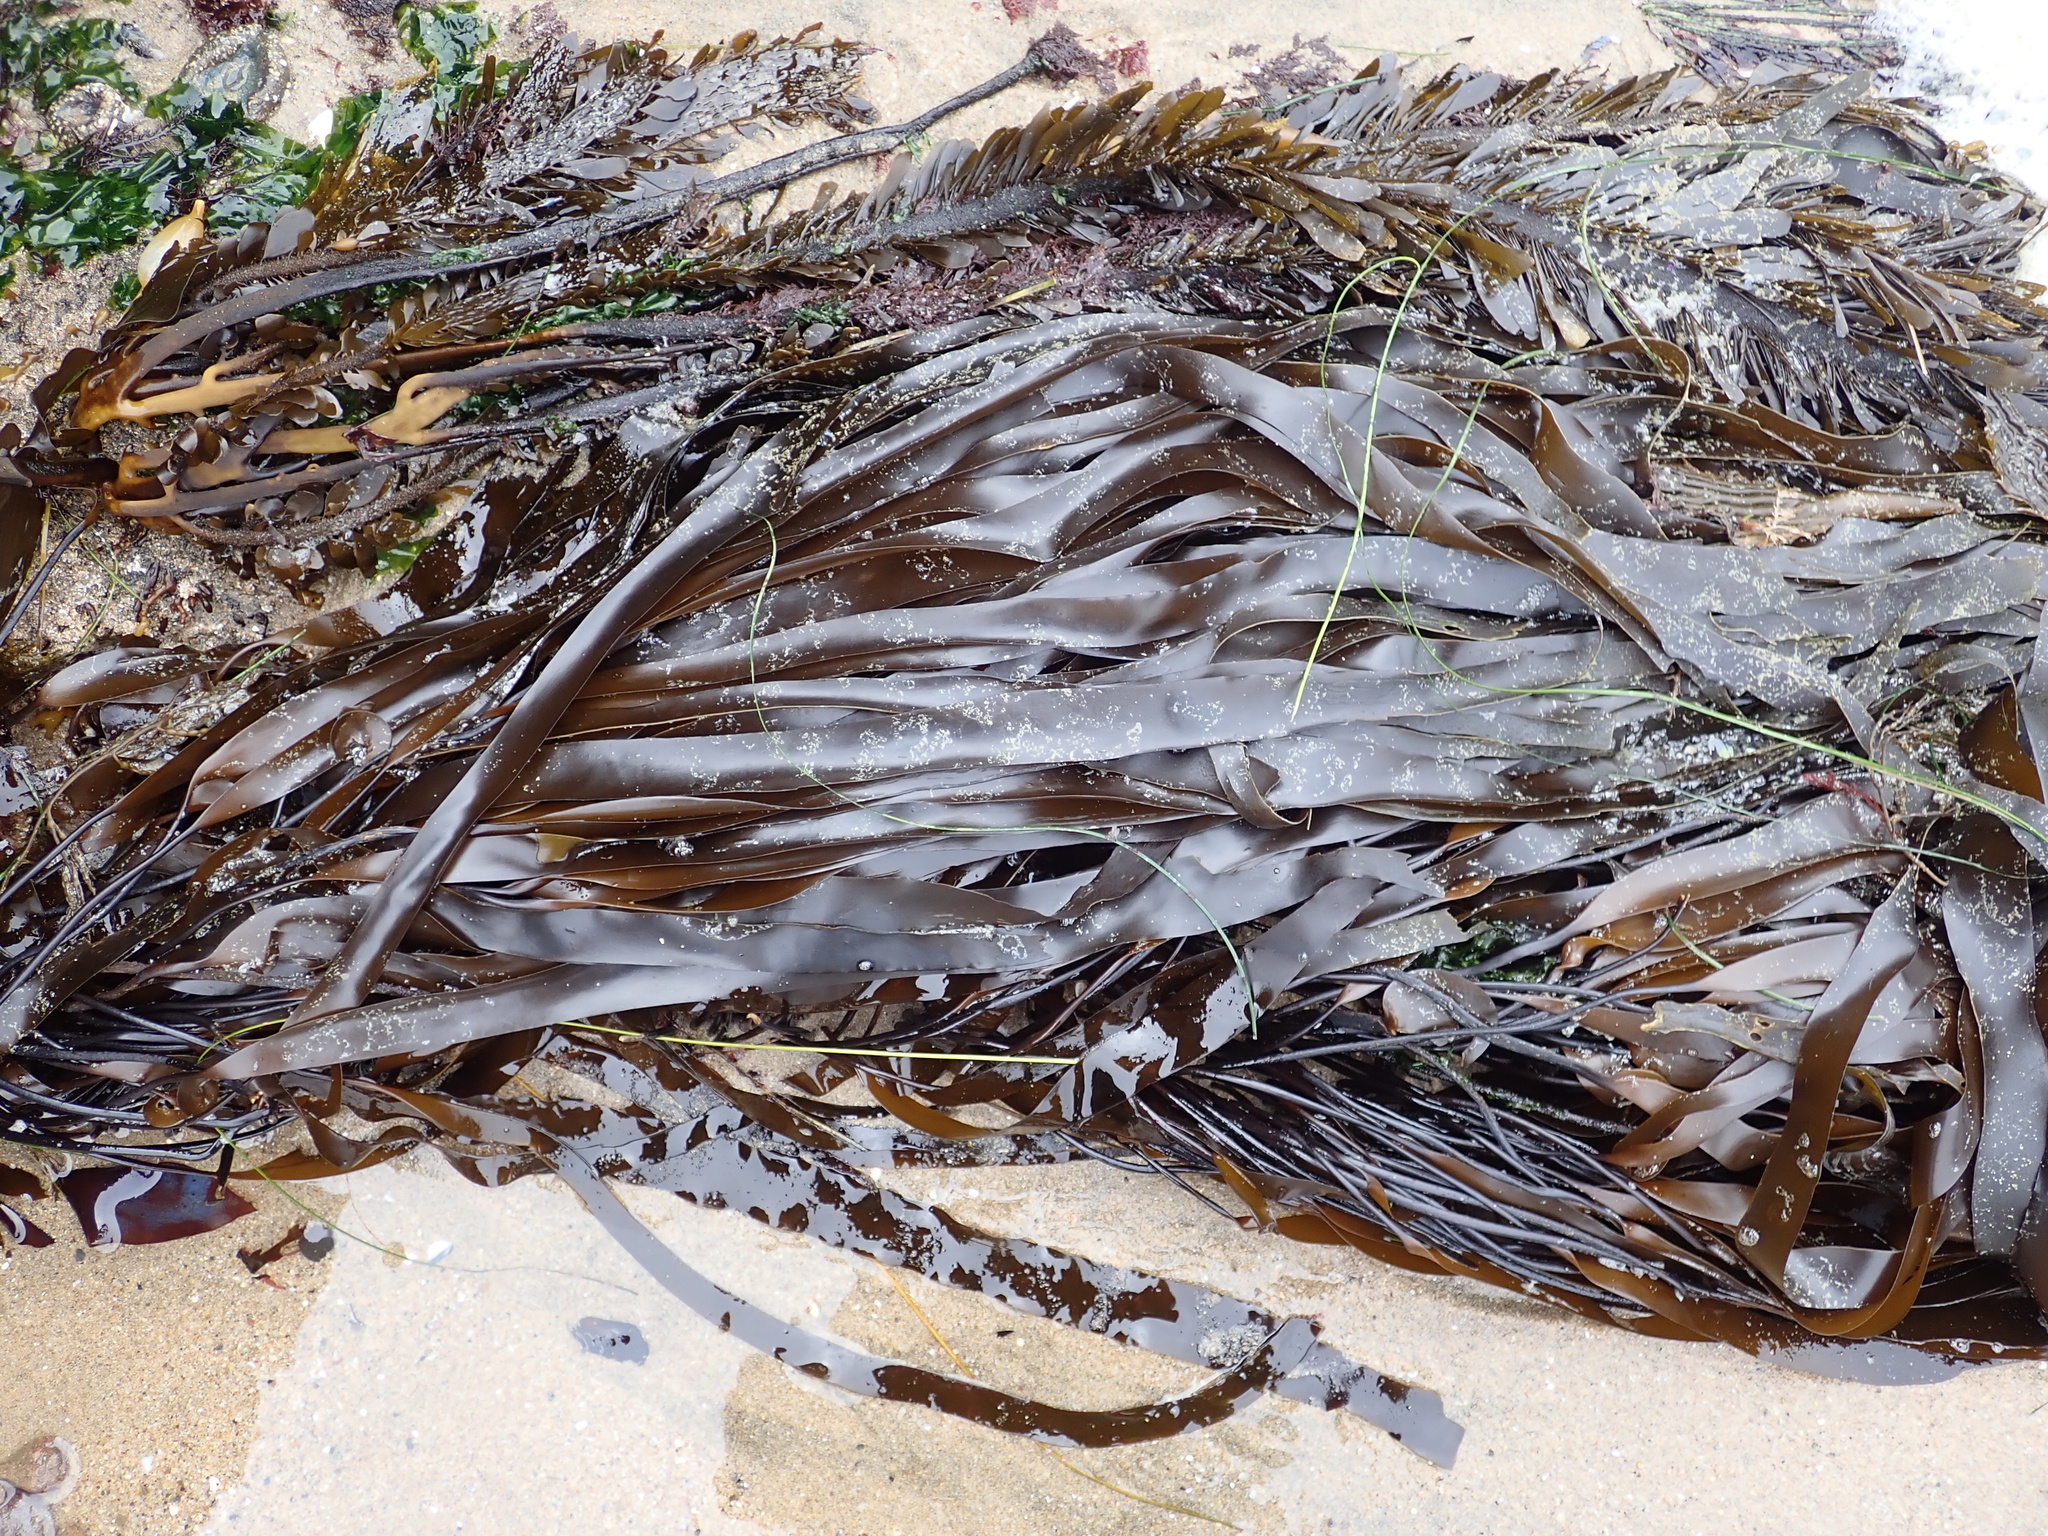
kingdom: Chromista
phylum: Ochrophyta
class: Phaeophyceae
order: Laminariales
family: Laminariaceae
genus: Laminaria
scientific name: Laminaria sinclairii
